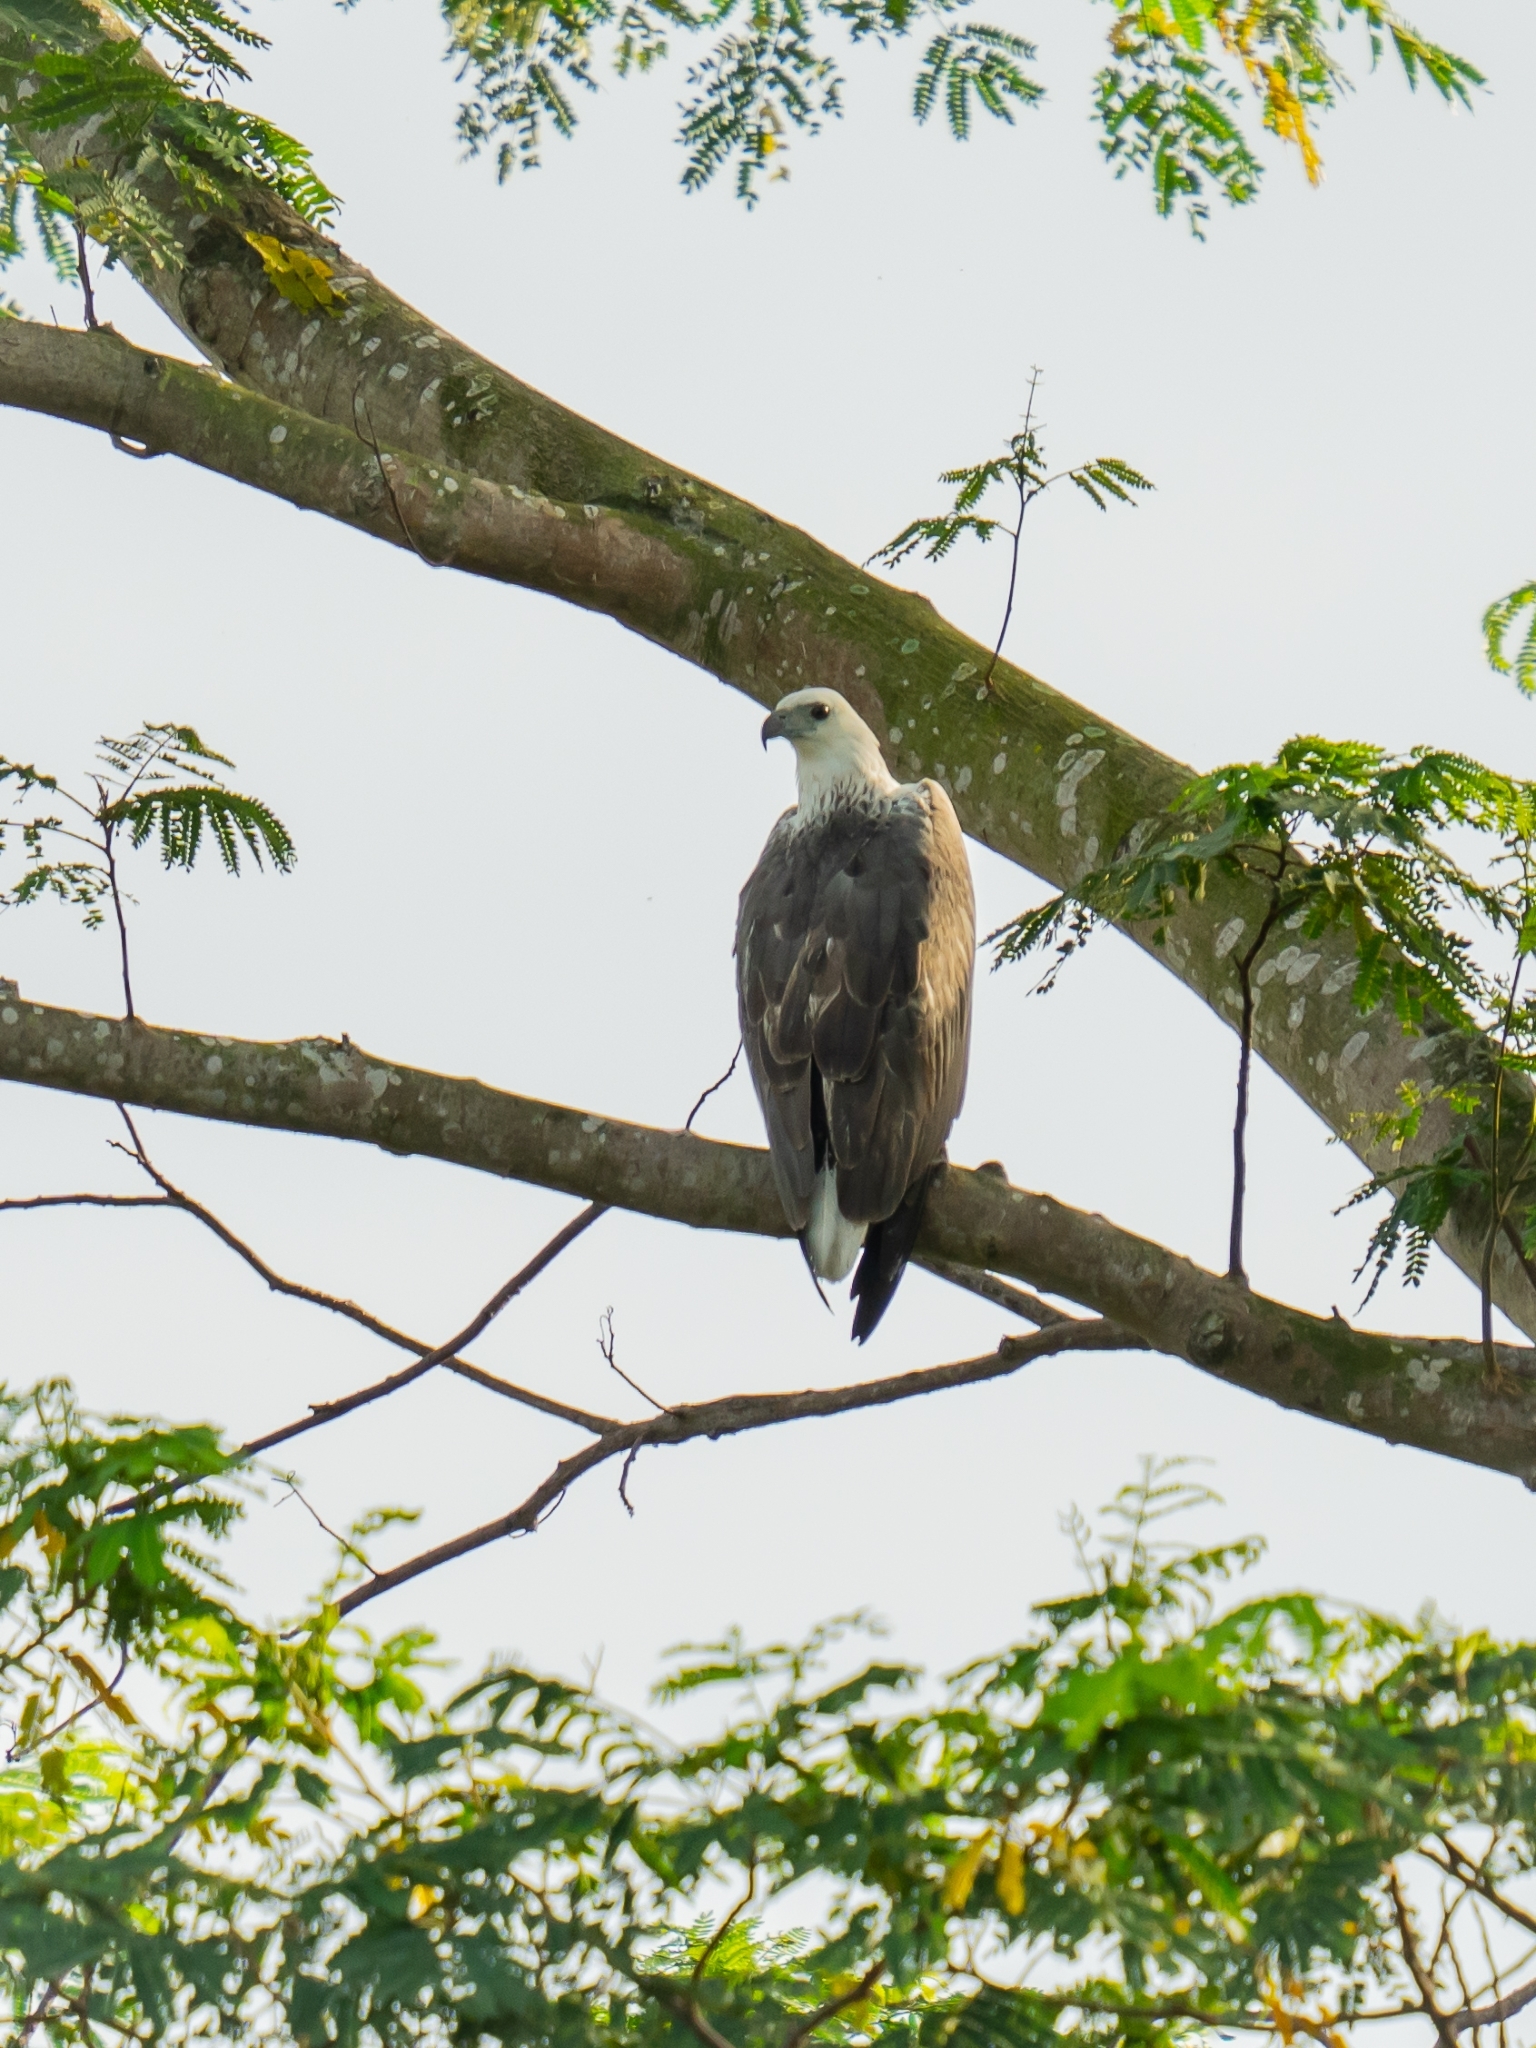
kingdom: Animalia
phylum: Chordata
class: Aves
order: Accipitriformes
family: Accipitridae
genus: Haliaeetus
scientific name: Haliaeetus leucogaster
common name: White-bellied sea eagle
